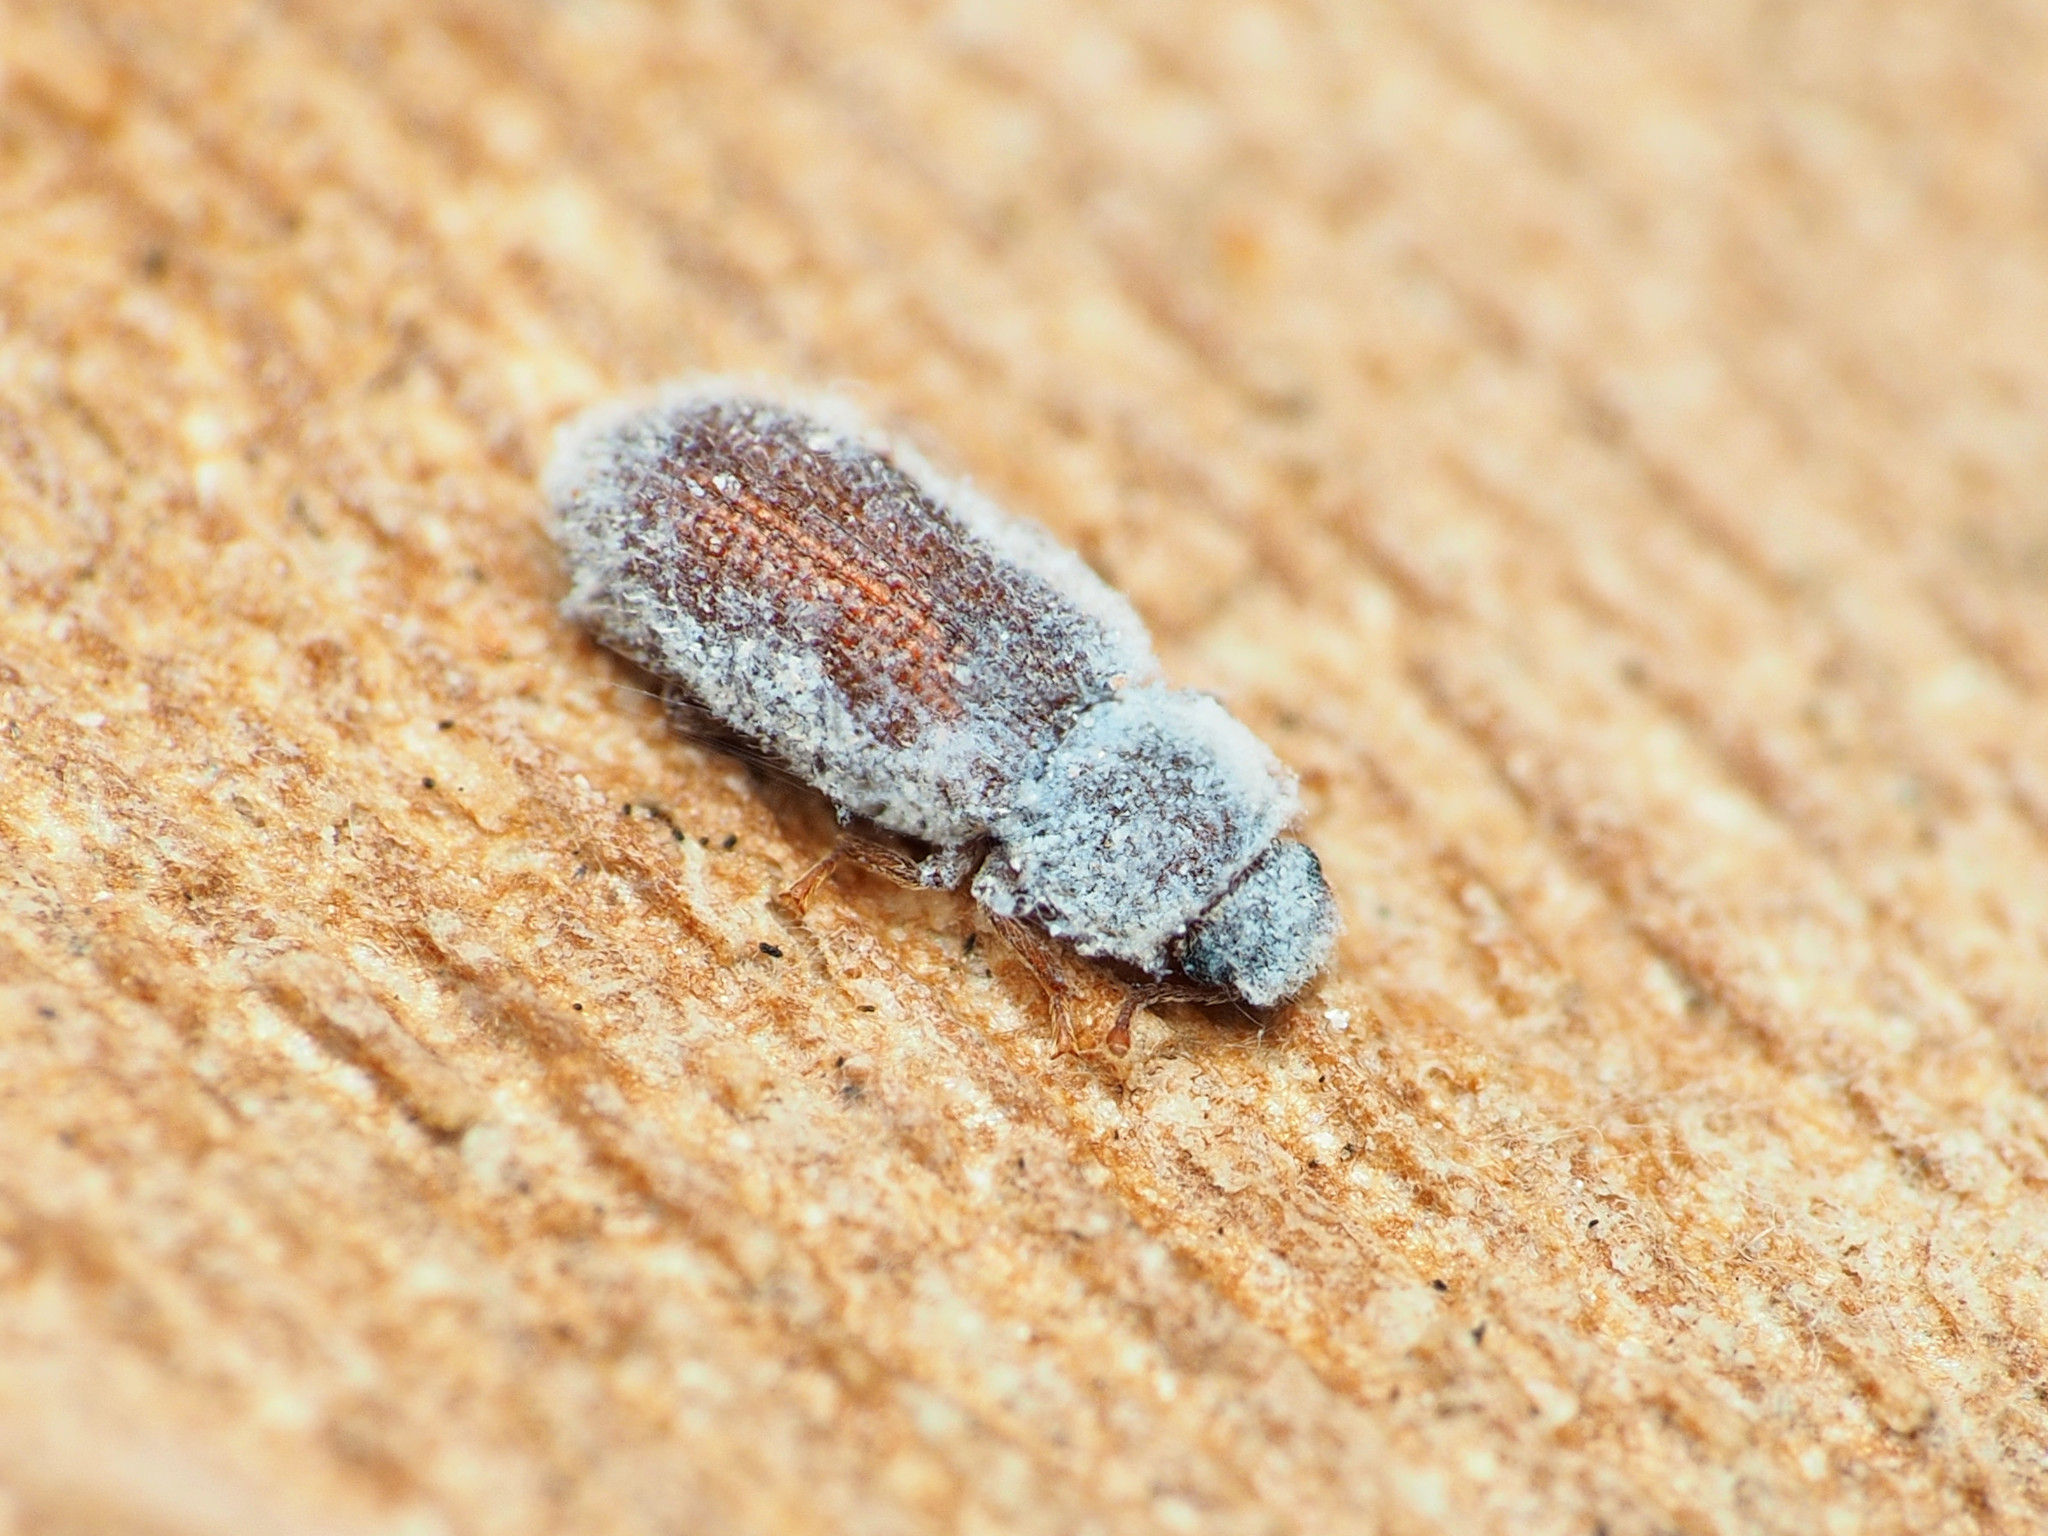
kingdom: Animalia
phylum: Arthropoda
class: Insecta
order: Coleoptera
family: Zopheridae
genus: Endeitoma
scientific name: Endeitoma granulata
